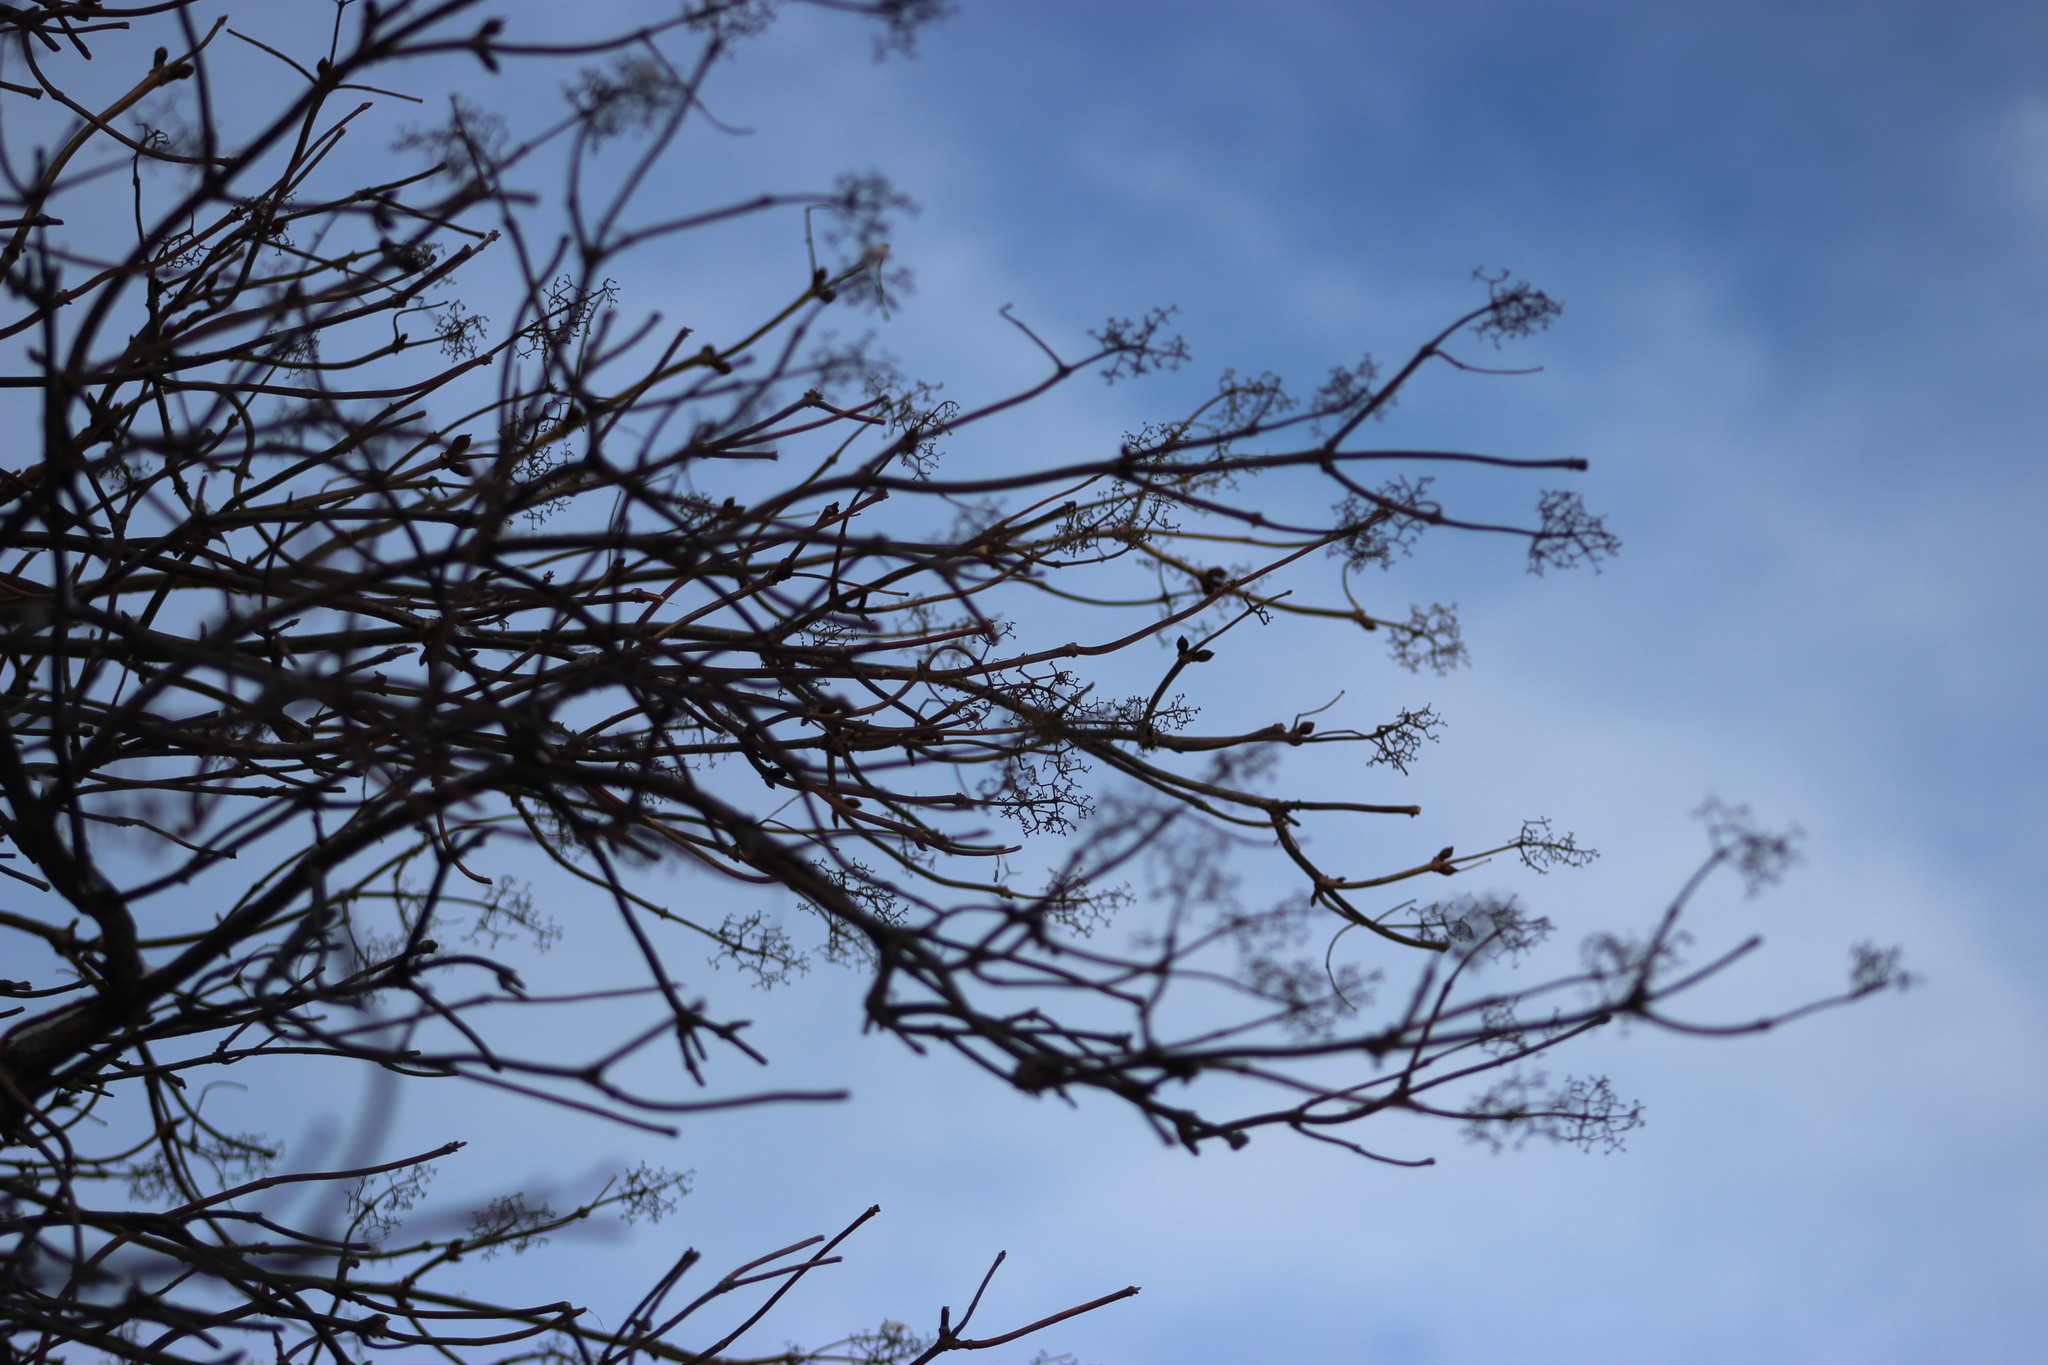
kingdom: Plantae
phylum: Tracheophyta
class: Magnoliopsida
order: Dipsacales
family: Viburnaceae
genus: Sambucus
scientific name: Sambucus sibirica
